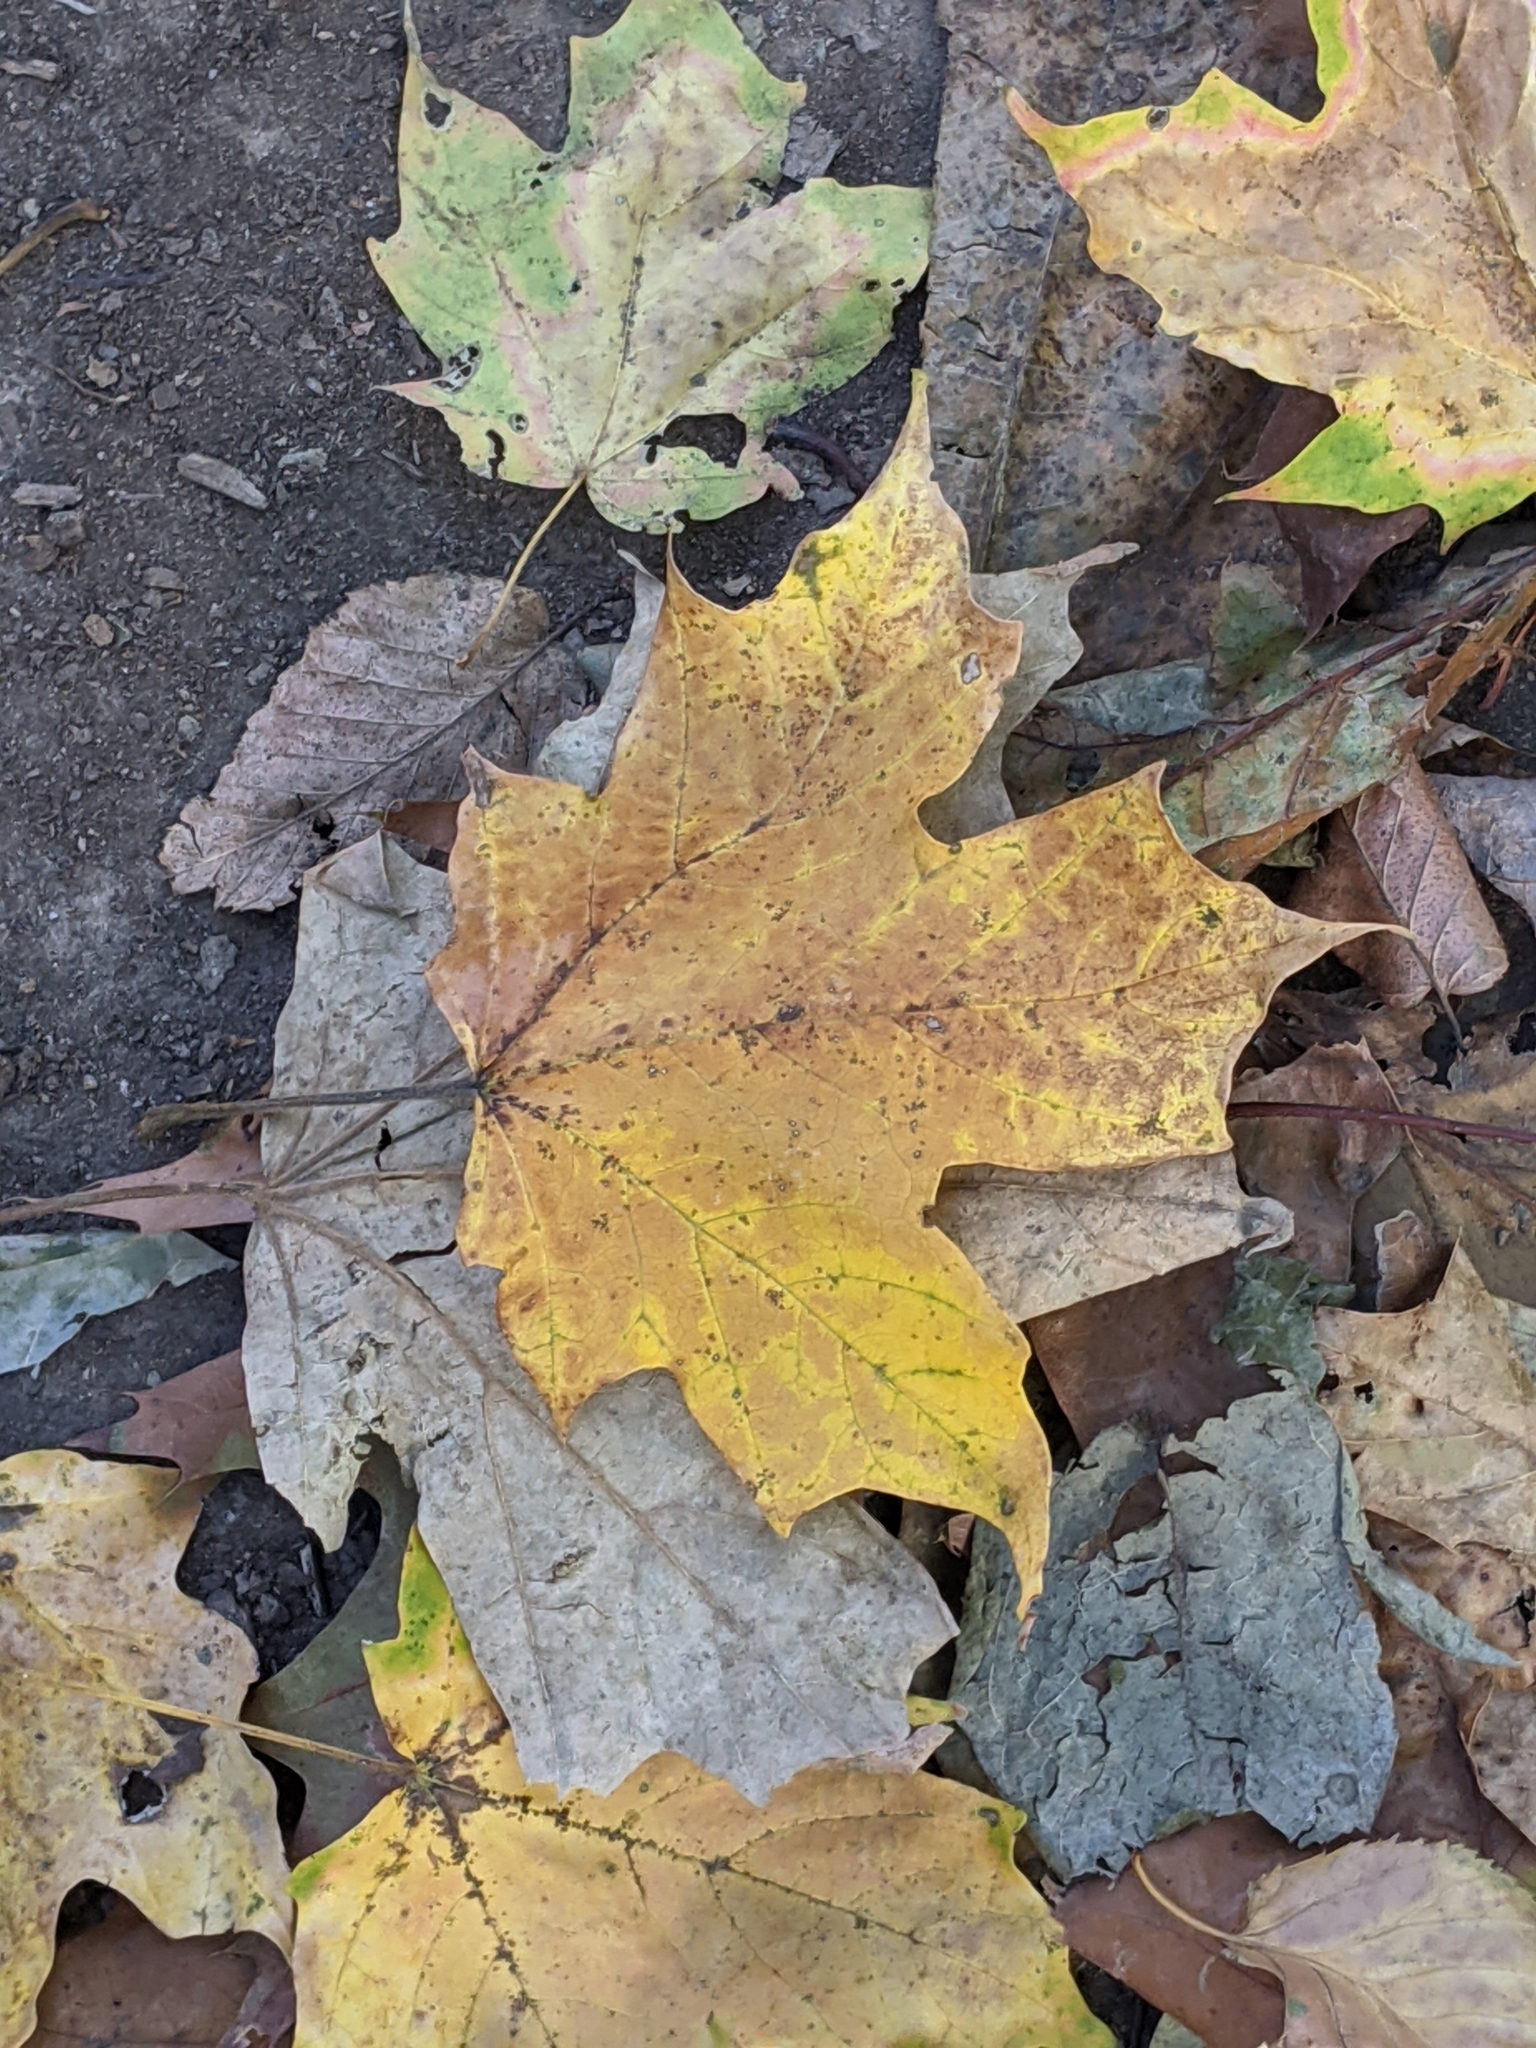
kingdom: Plantae
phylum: Tracheophyta
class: Magnoliopsida
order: Sapindales
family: Sapindaceae
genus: Acer
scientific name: Acer saccharum
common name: Sugar maple
